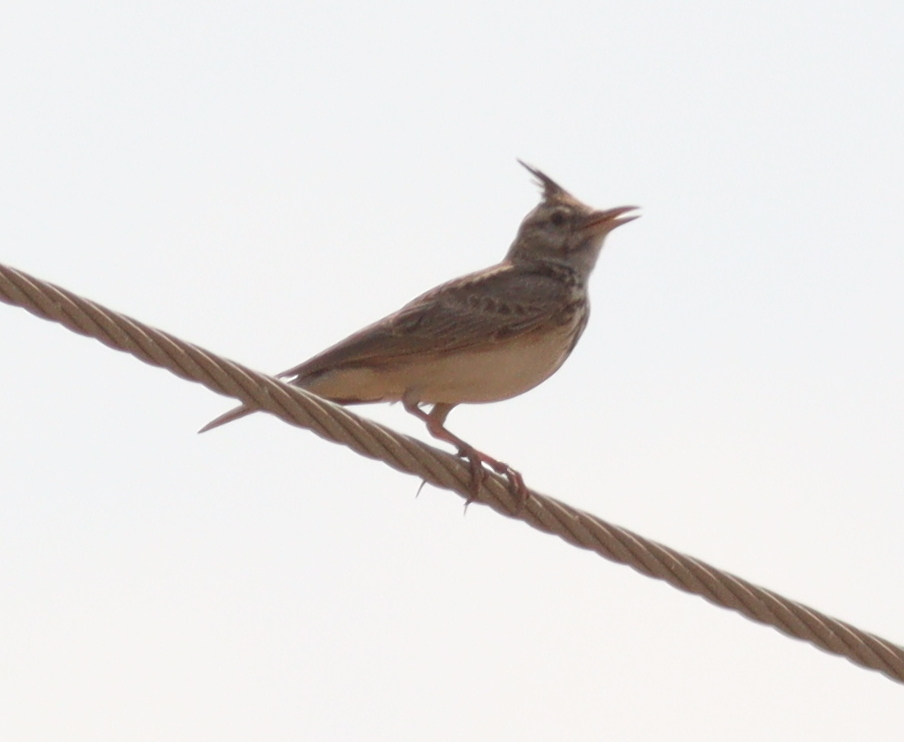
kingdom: Animalia
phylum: Chordata
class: Aves
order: Passeriformes
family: Alaudidae
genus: Galerida
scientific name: Galerida cristata
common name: Crested lark
